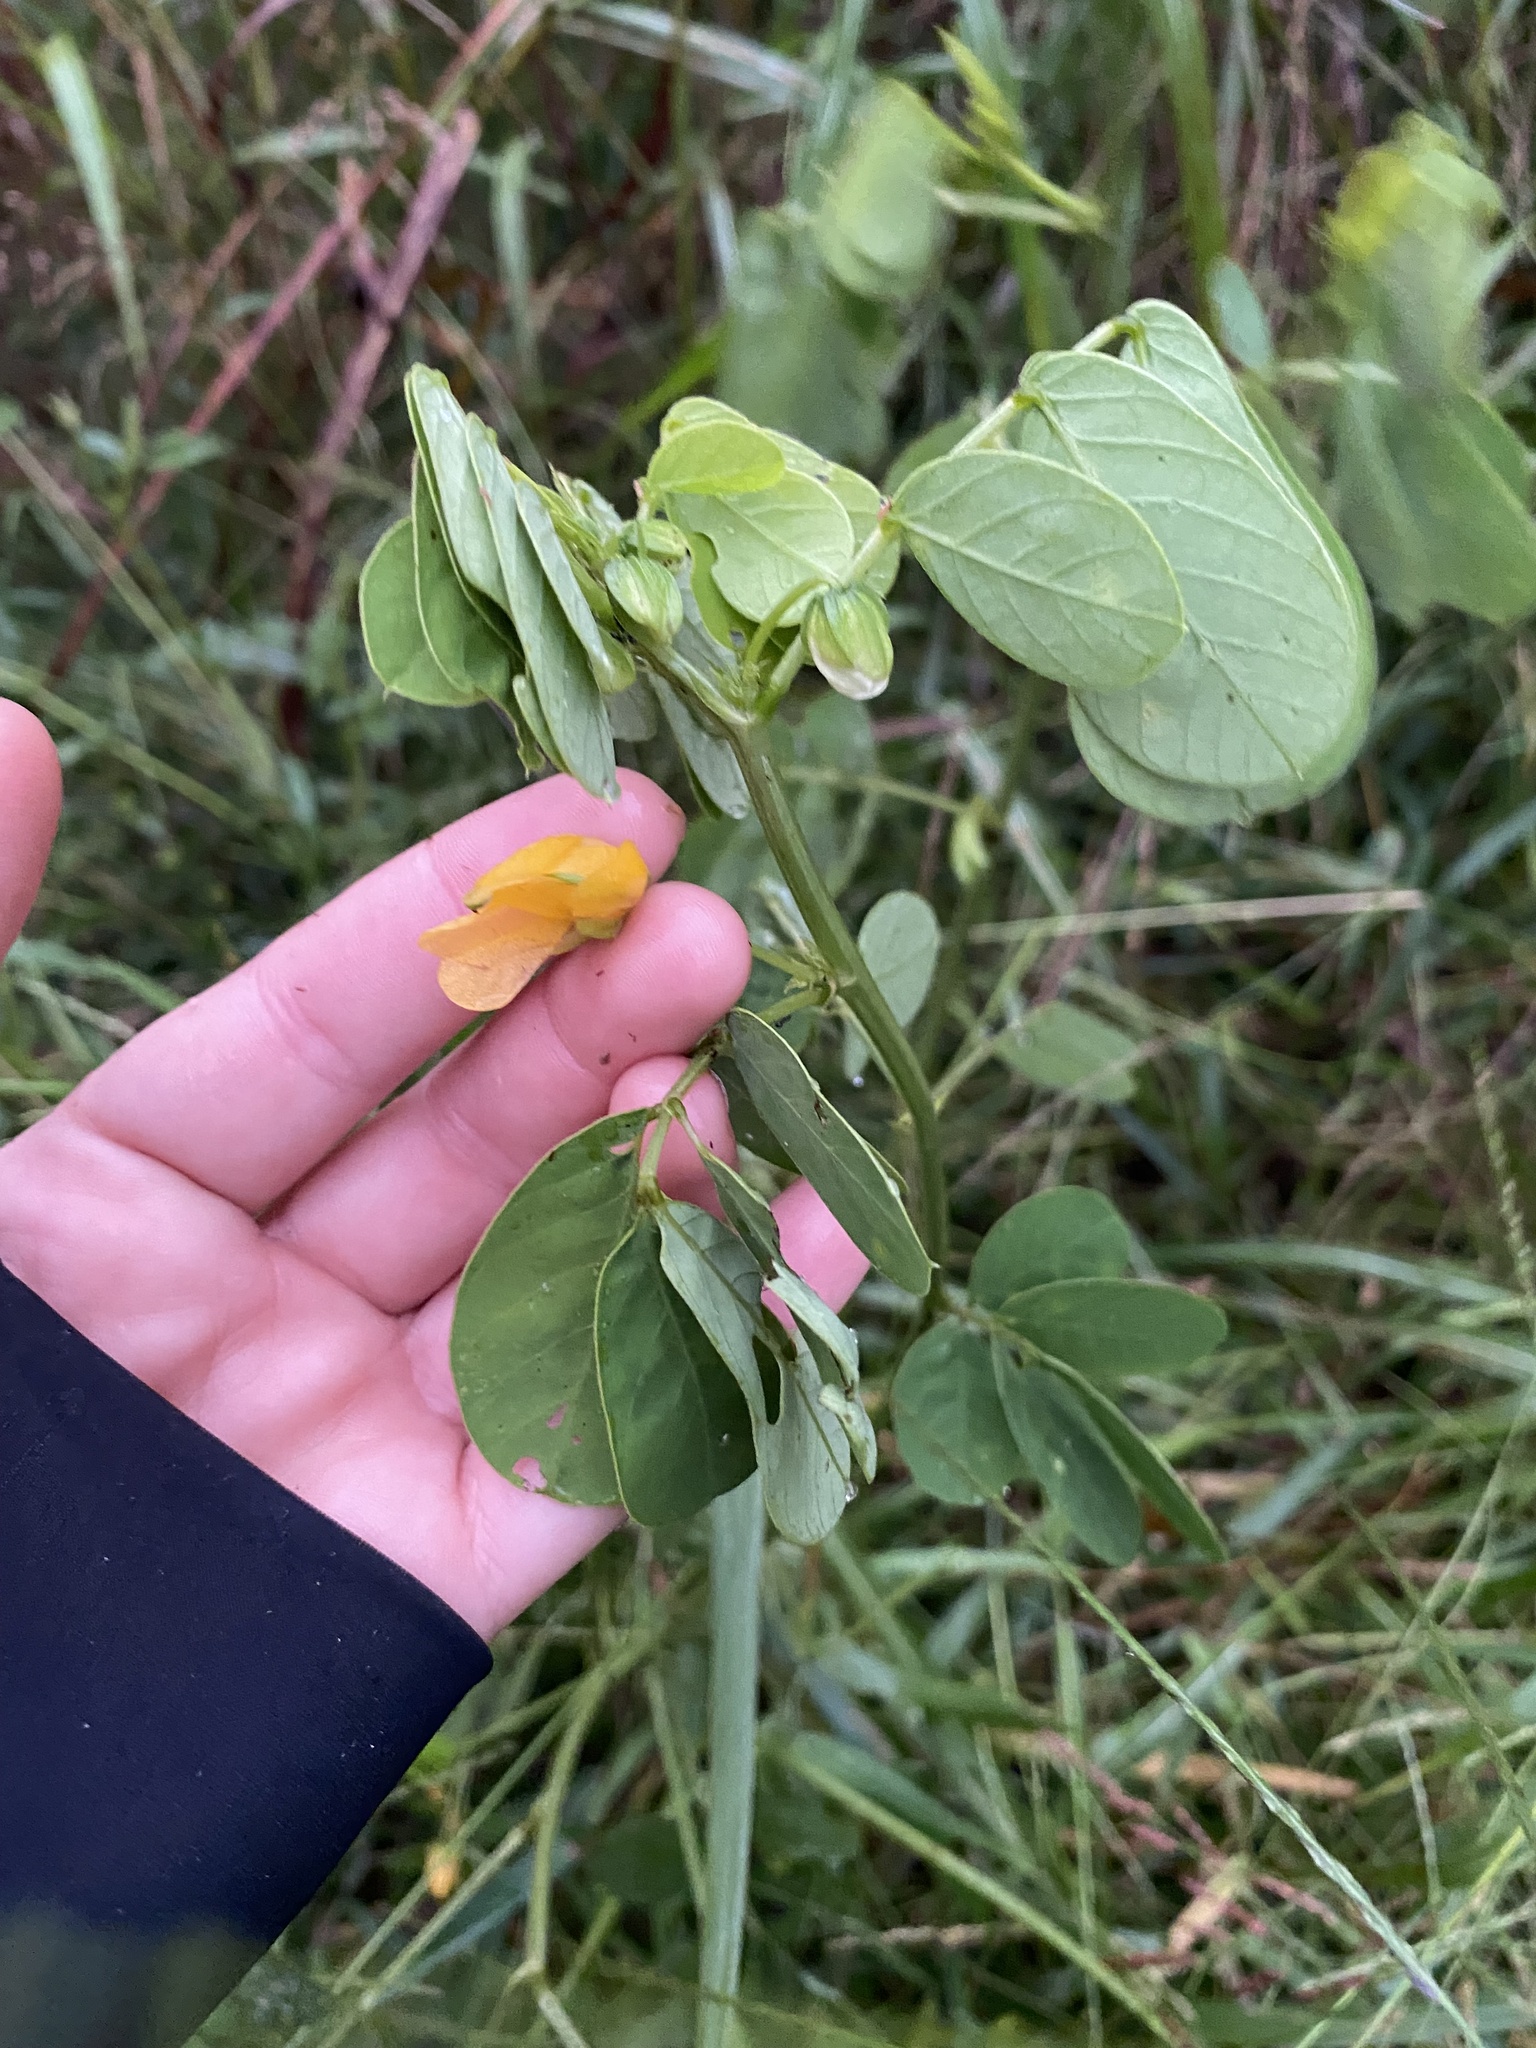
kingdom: Plantae
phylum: Tracheophyta
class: Magnoliopsida
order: Fabales
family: Fabaceae
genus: Senna
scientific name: Senna obtusifolia
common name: Java-bean
